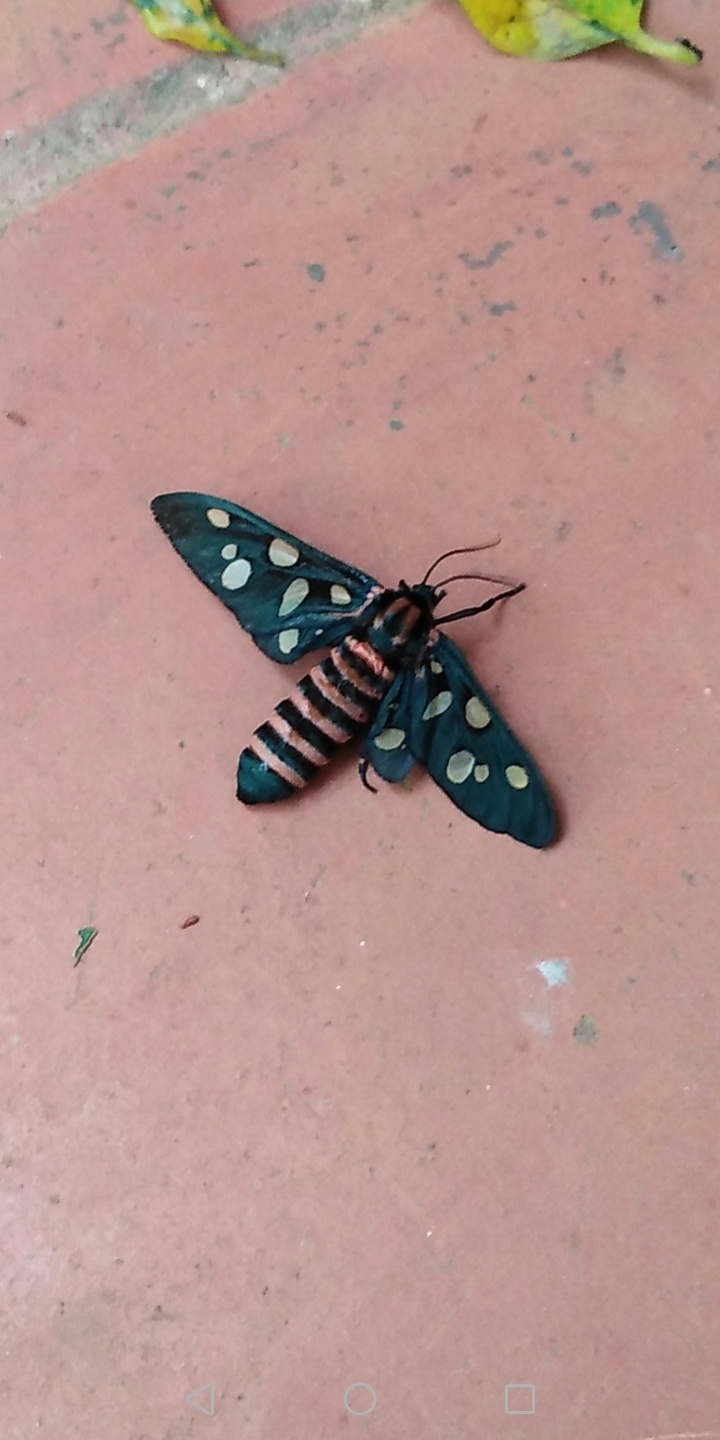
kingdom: Animalia
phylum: Arthropoda
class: Insecta
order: Lepidoptera
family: Erebidae
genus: Amata
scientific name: Amata passalis
